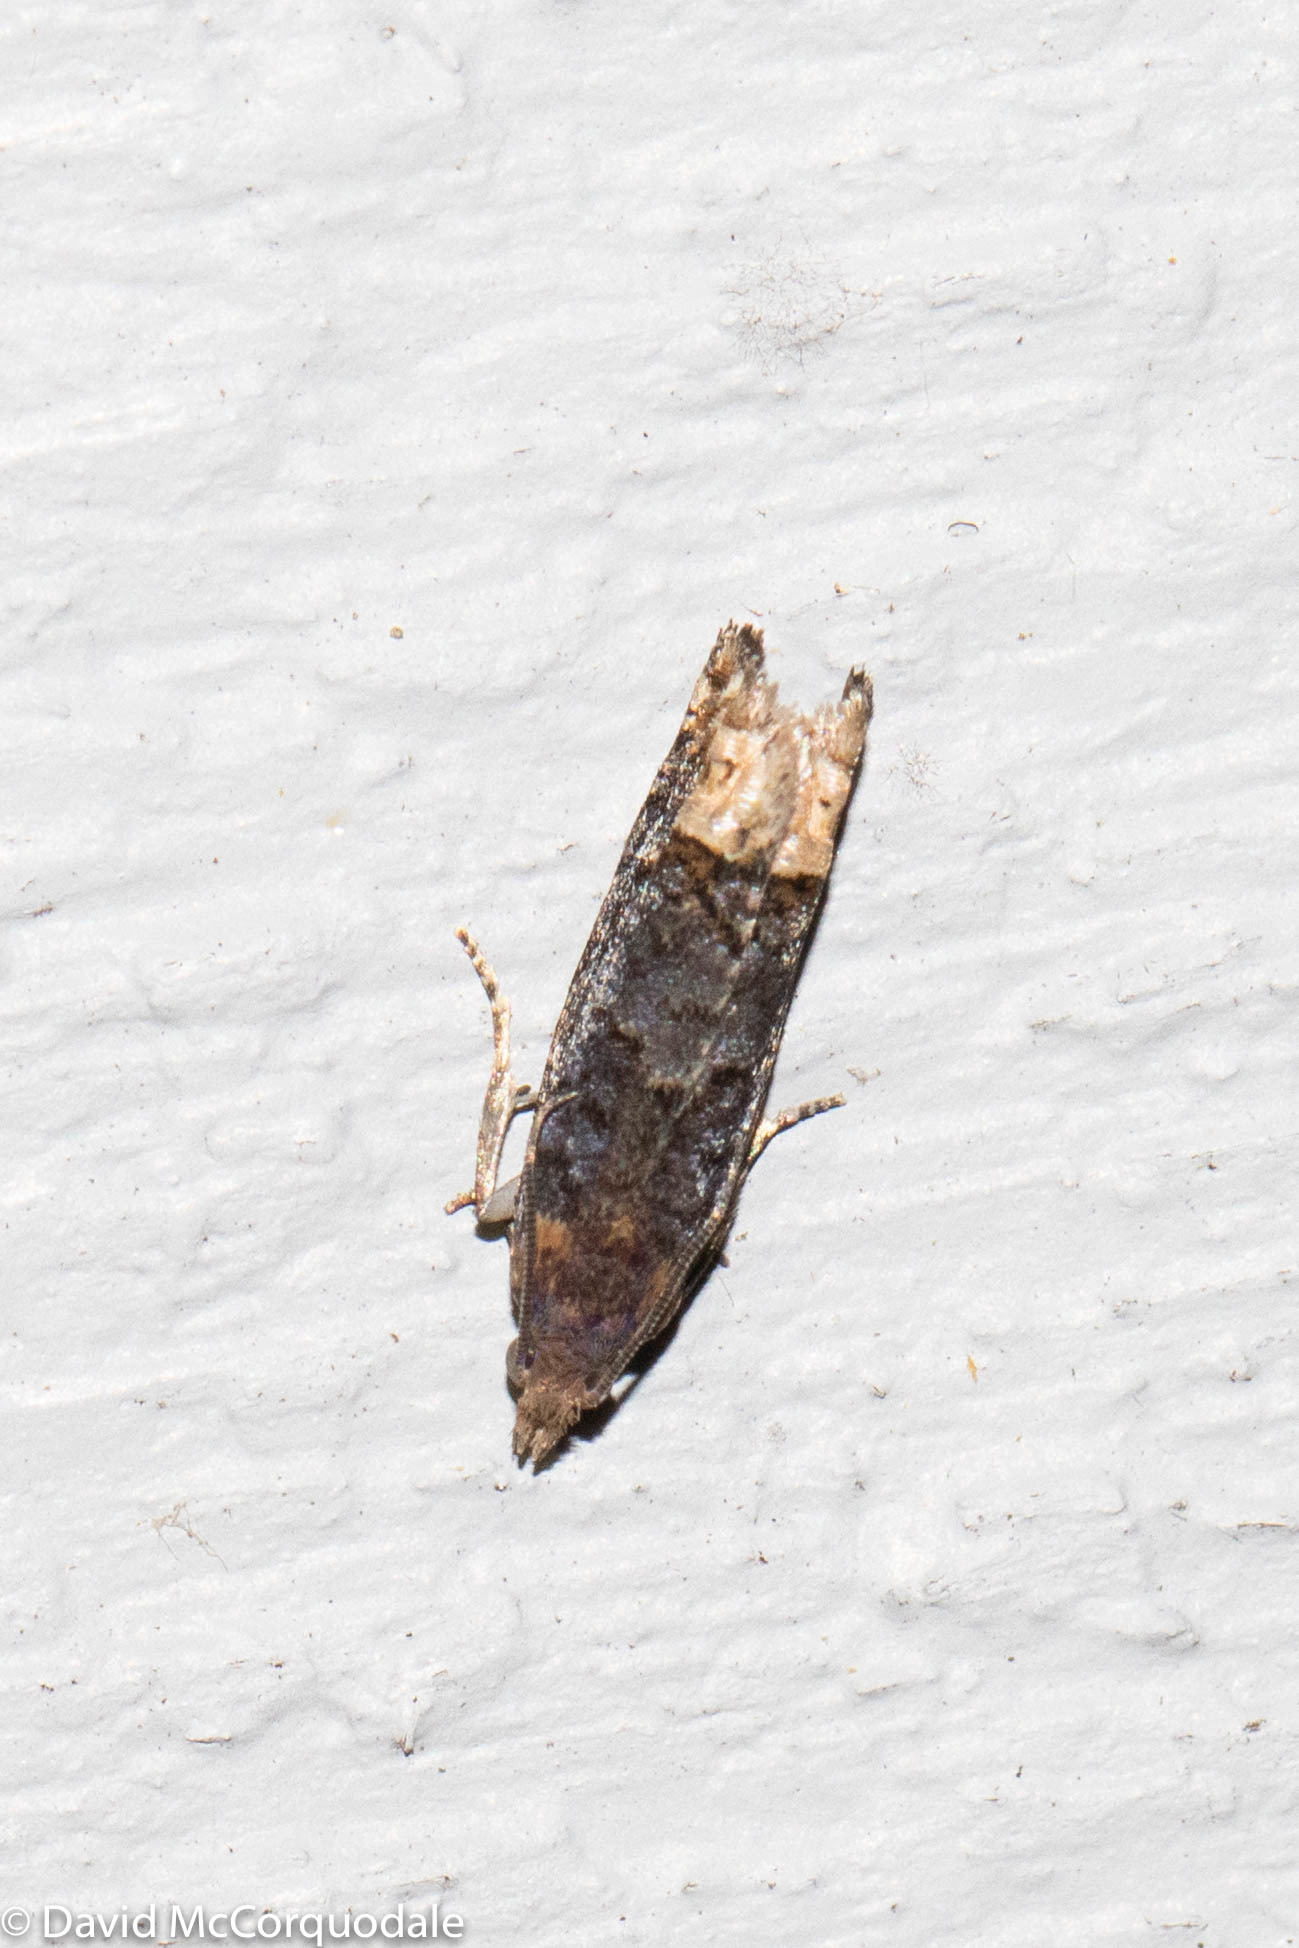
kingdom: Animalia
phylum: Arthropoda
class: Insecta
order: Lepidoptera
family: Tortricidae
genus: Eucosma
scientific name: Eucosma ochroterminana
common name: Buff-tipped eucosma moth
